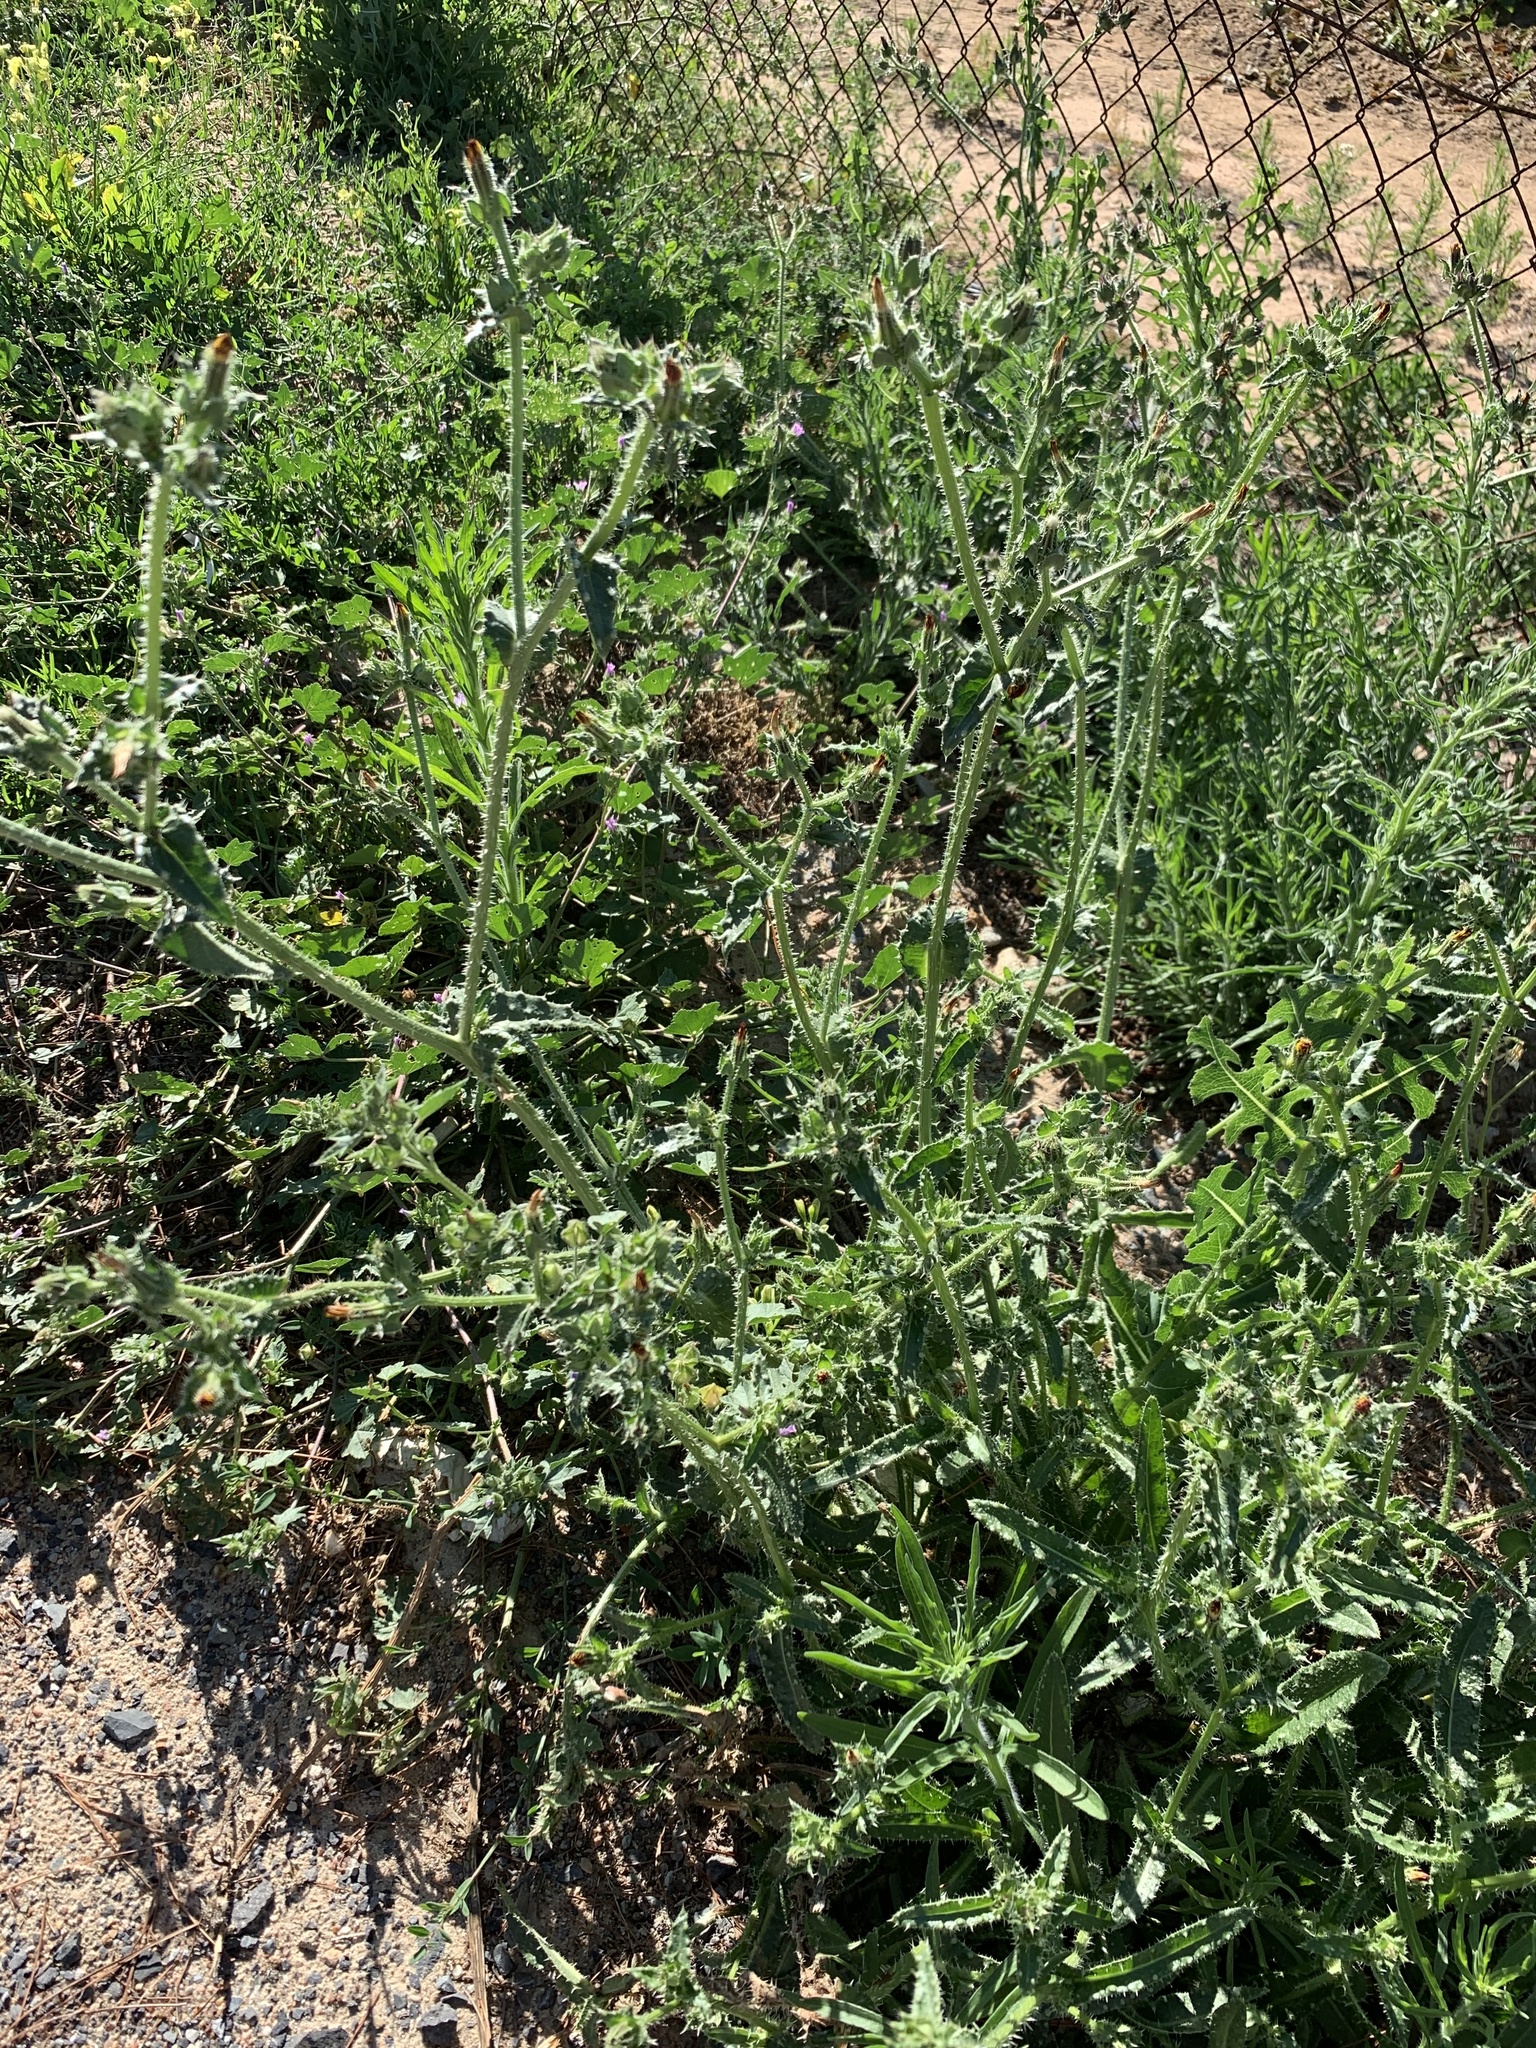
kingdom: Plantae
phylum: Tracheophyta
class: Magnoliopsida
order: Asterales
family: Asteraceae
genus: Helminthotheca
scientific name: Helminthotheca echioides
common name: Ox-tongue
